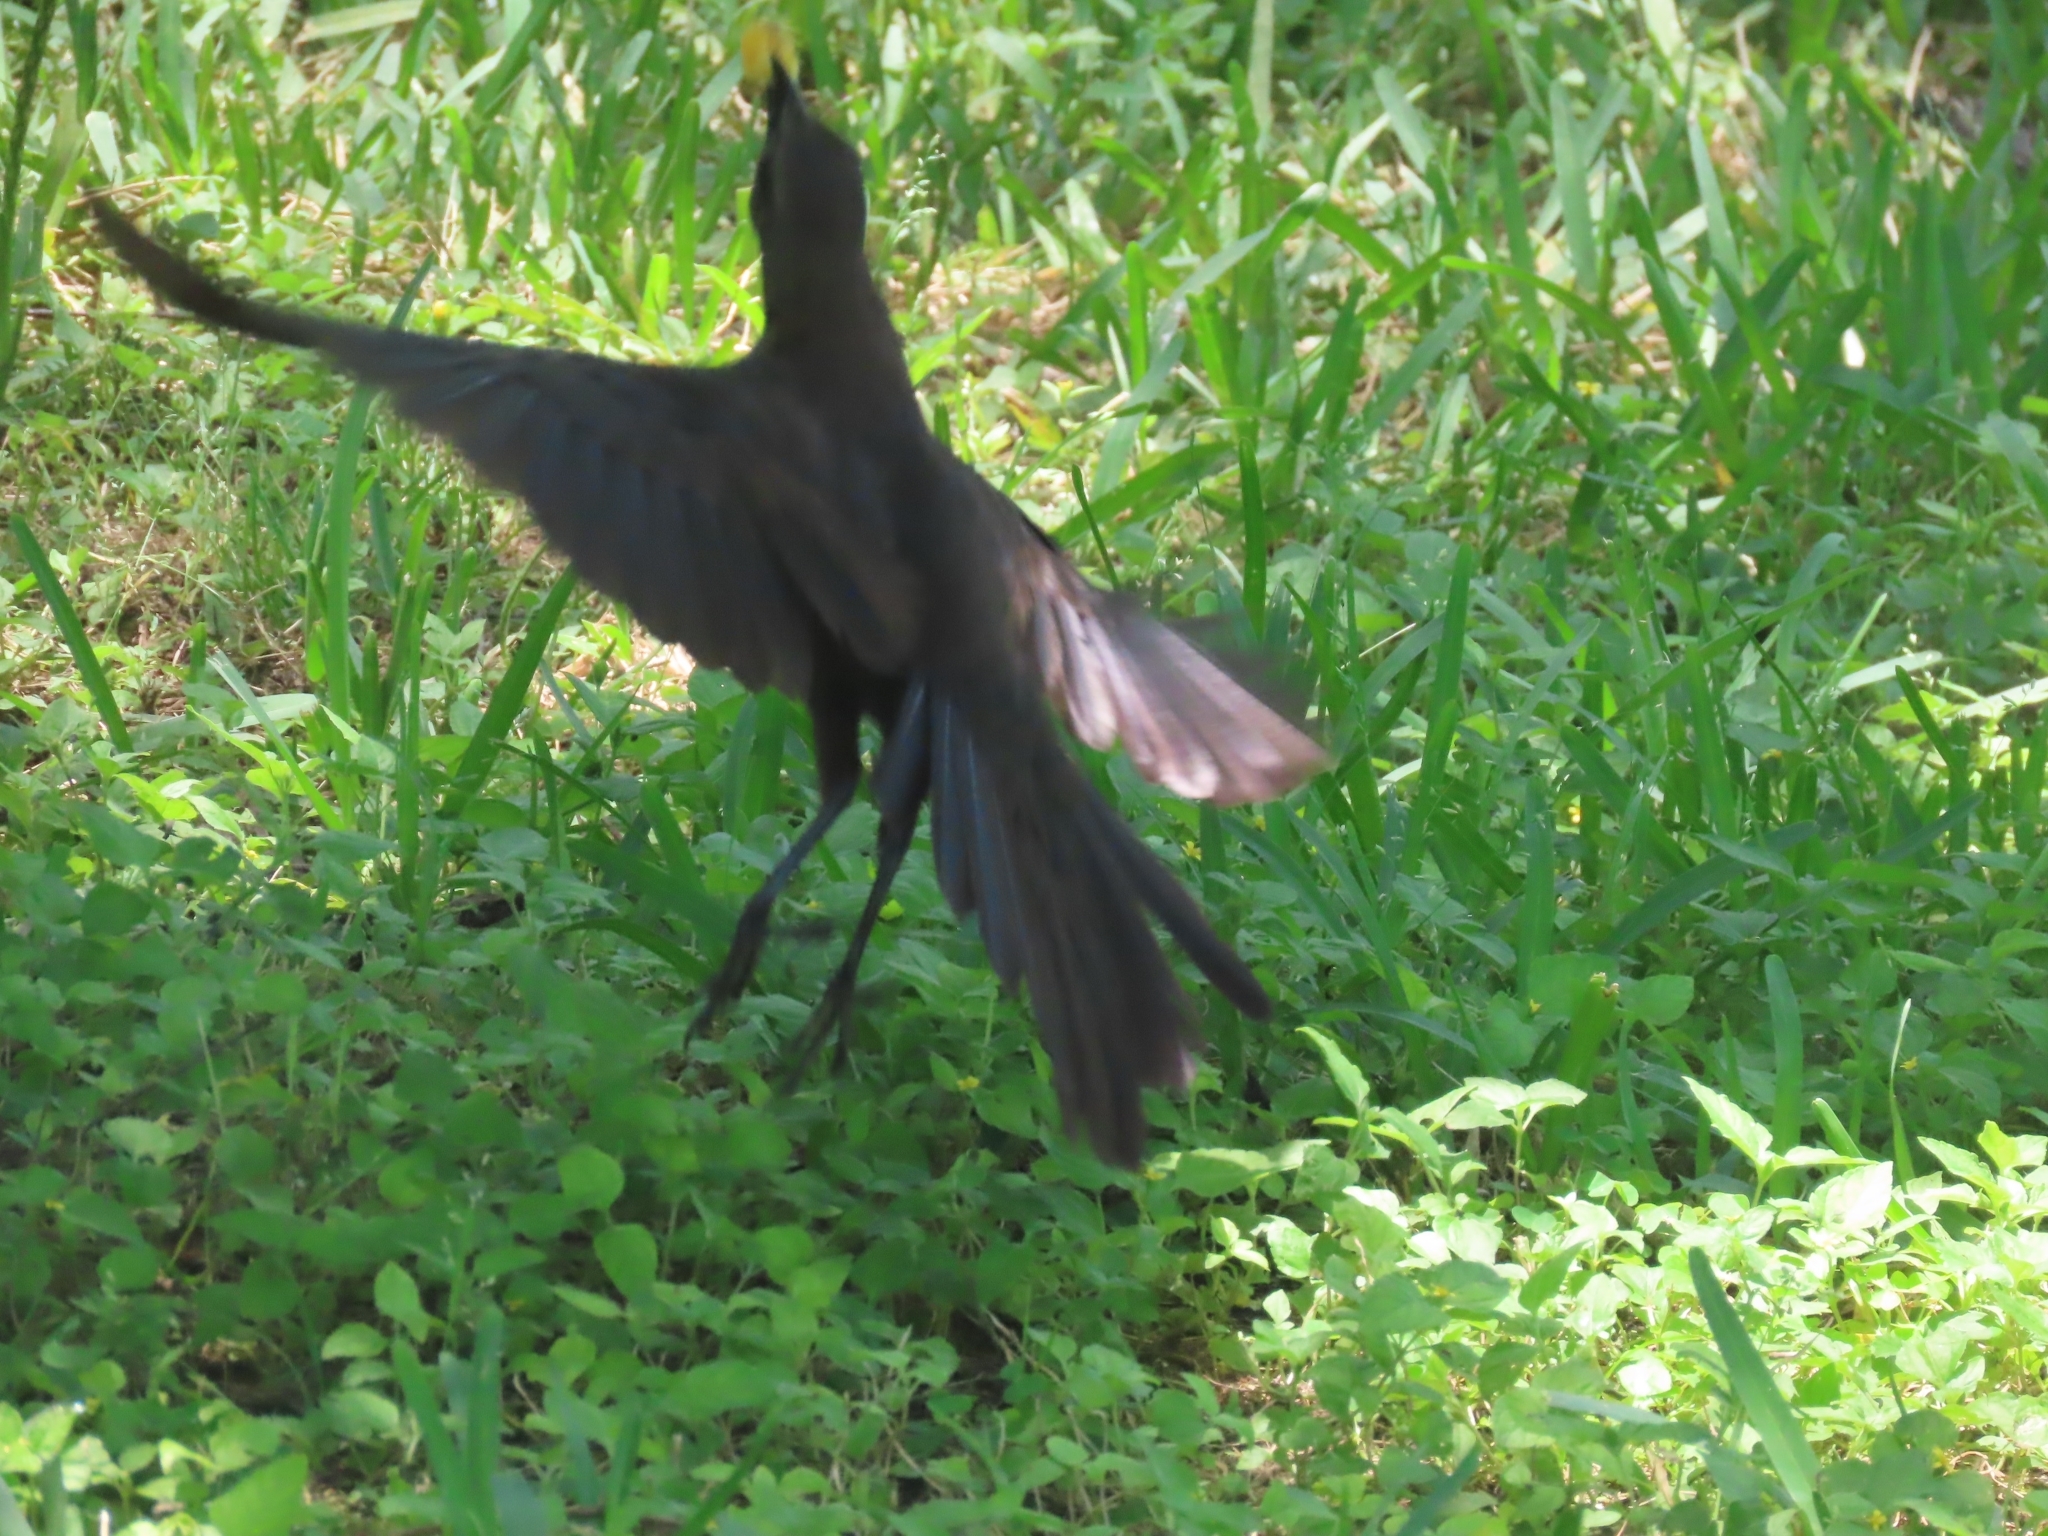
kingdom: Animalia
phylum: Chordata
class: Aves
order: Passeriformes
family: Icteridae
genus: Quiscalus
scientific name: Quiscalus mexicanus
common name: Great-tailed grackle
